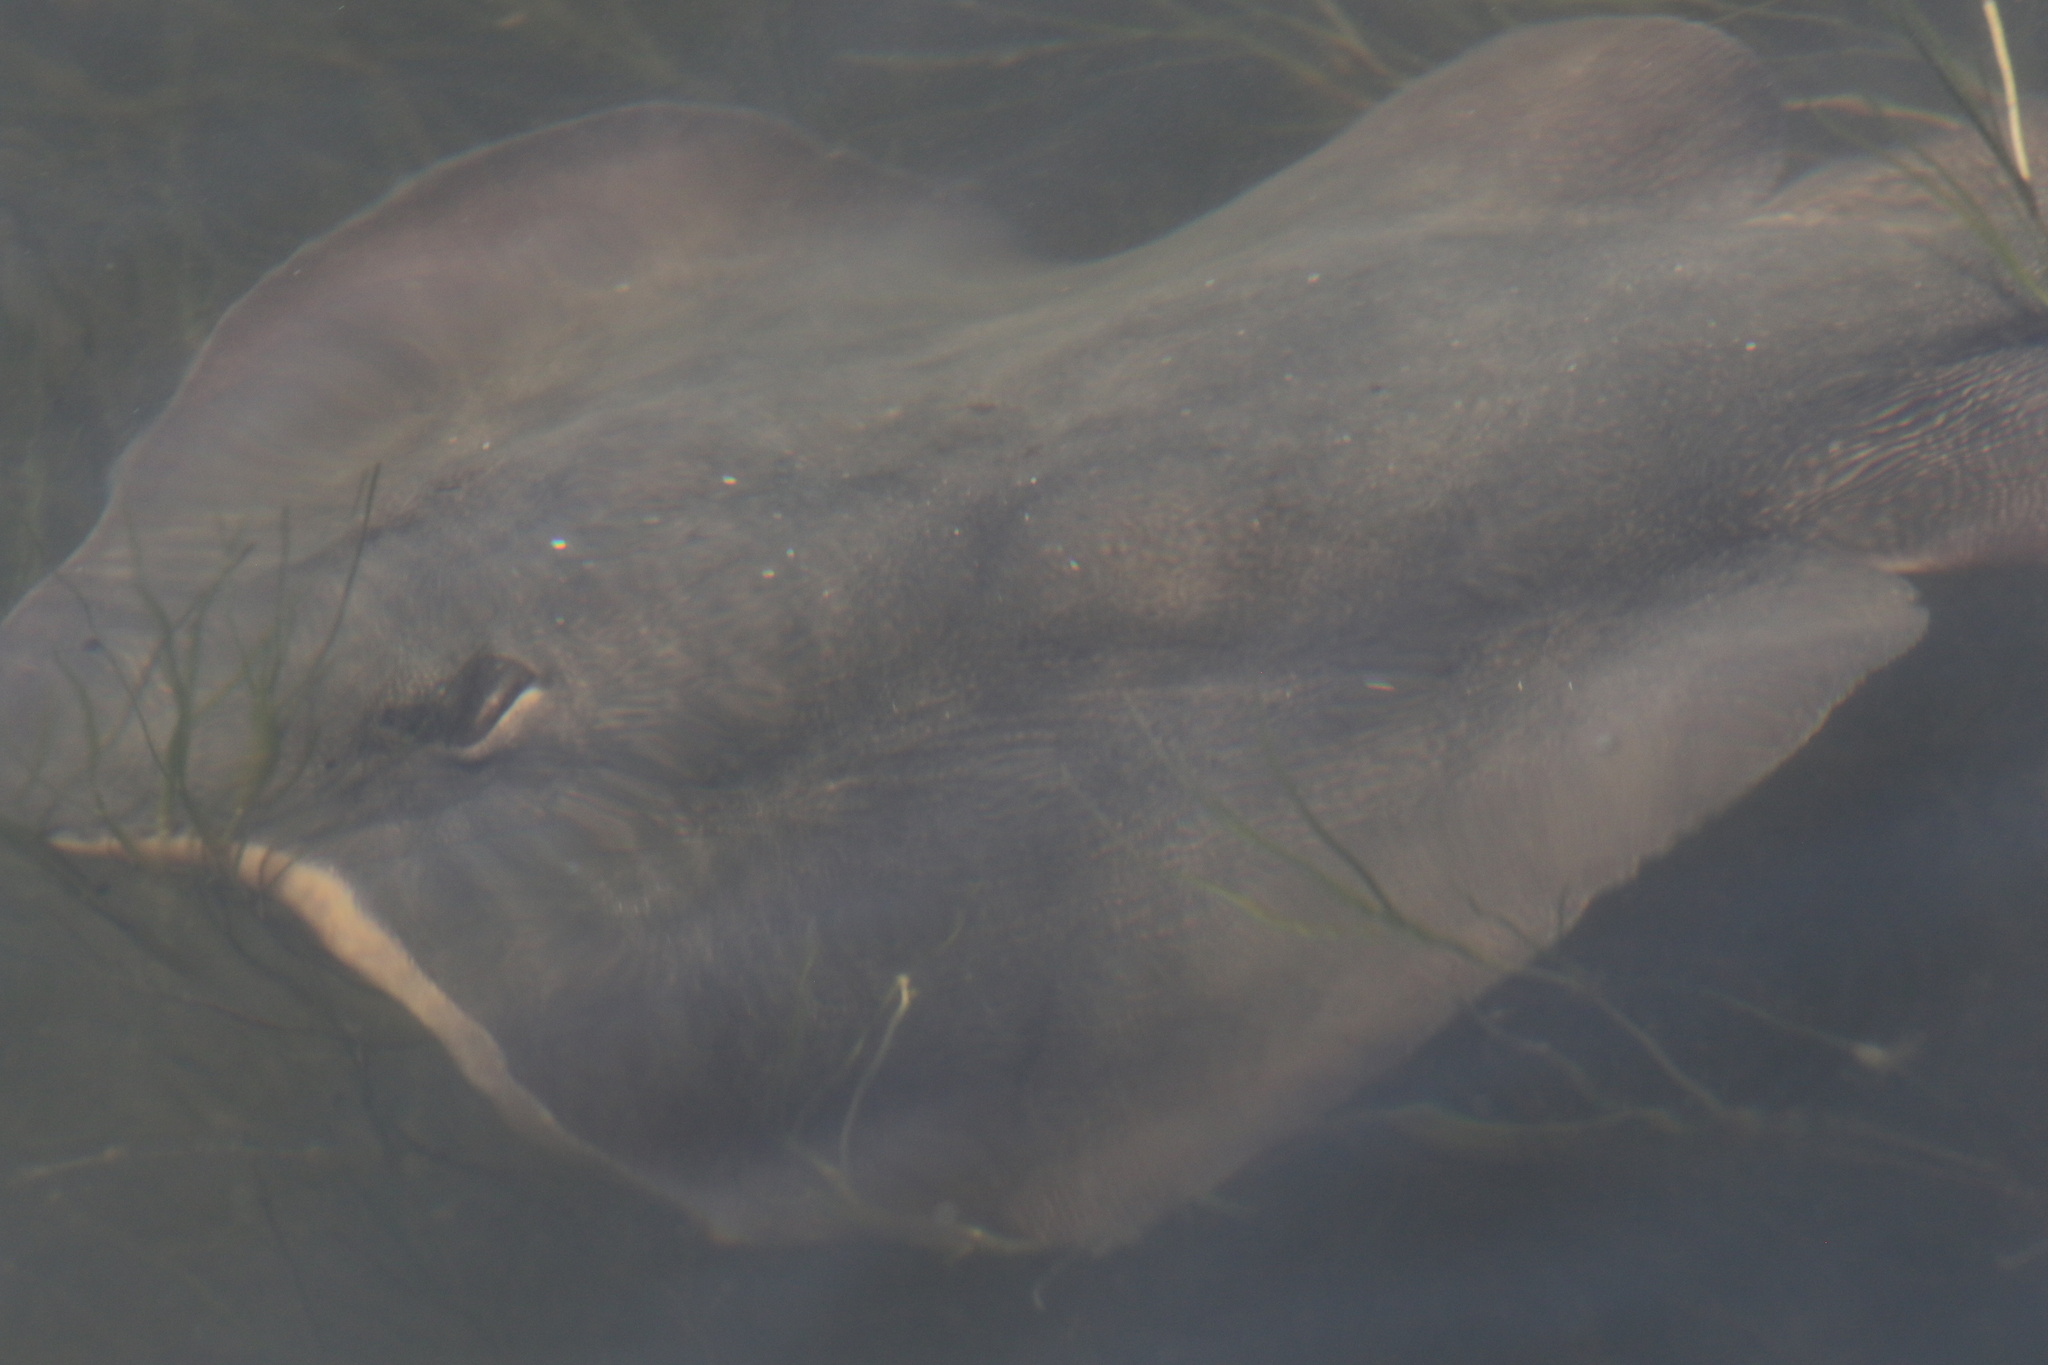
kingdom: Animalia
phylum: Chordata
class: Elasmobranchii
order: Myliobatiformes
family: Urolophidae
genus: Urolophus
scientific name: Urolophus halleri
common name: Round stingray
